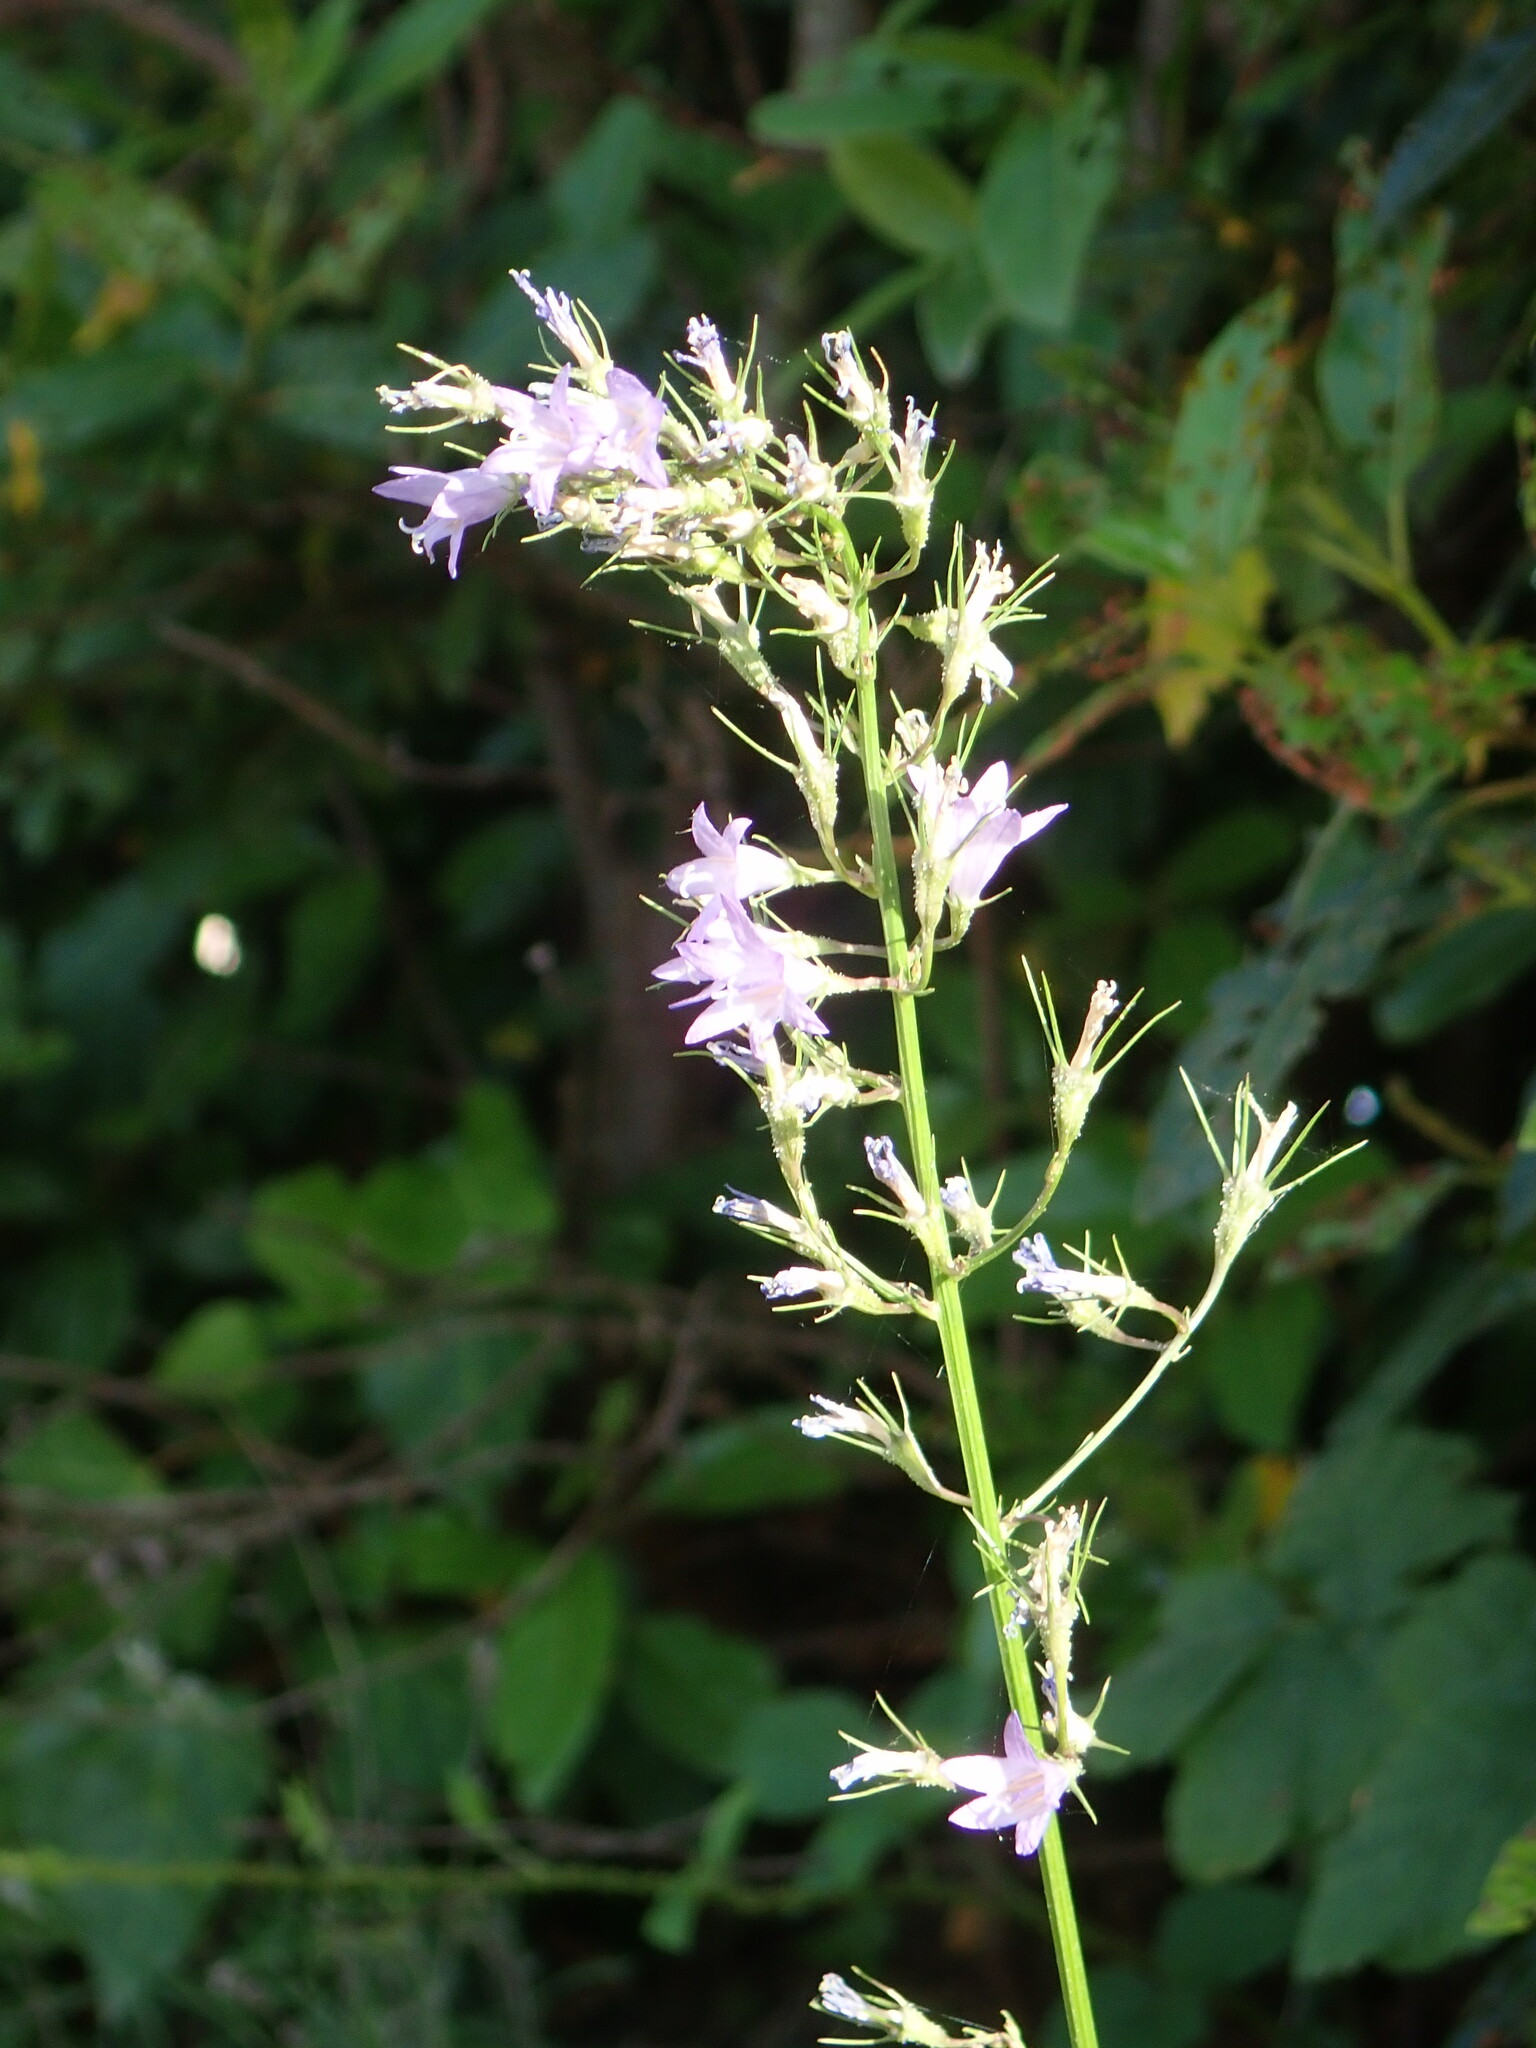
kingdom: Plantae
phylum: Tracheophyta
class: Magnoliopsida
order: Asterales
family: Campanulaceae
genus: Campanula
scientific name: Campanula rapunculus
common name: Rampion bellflower
